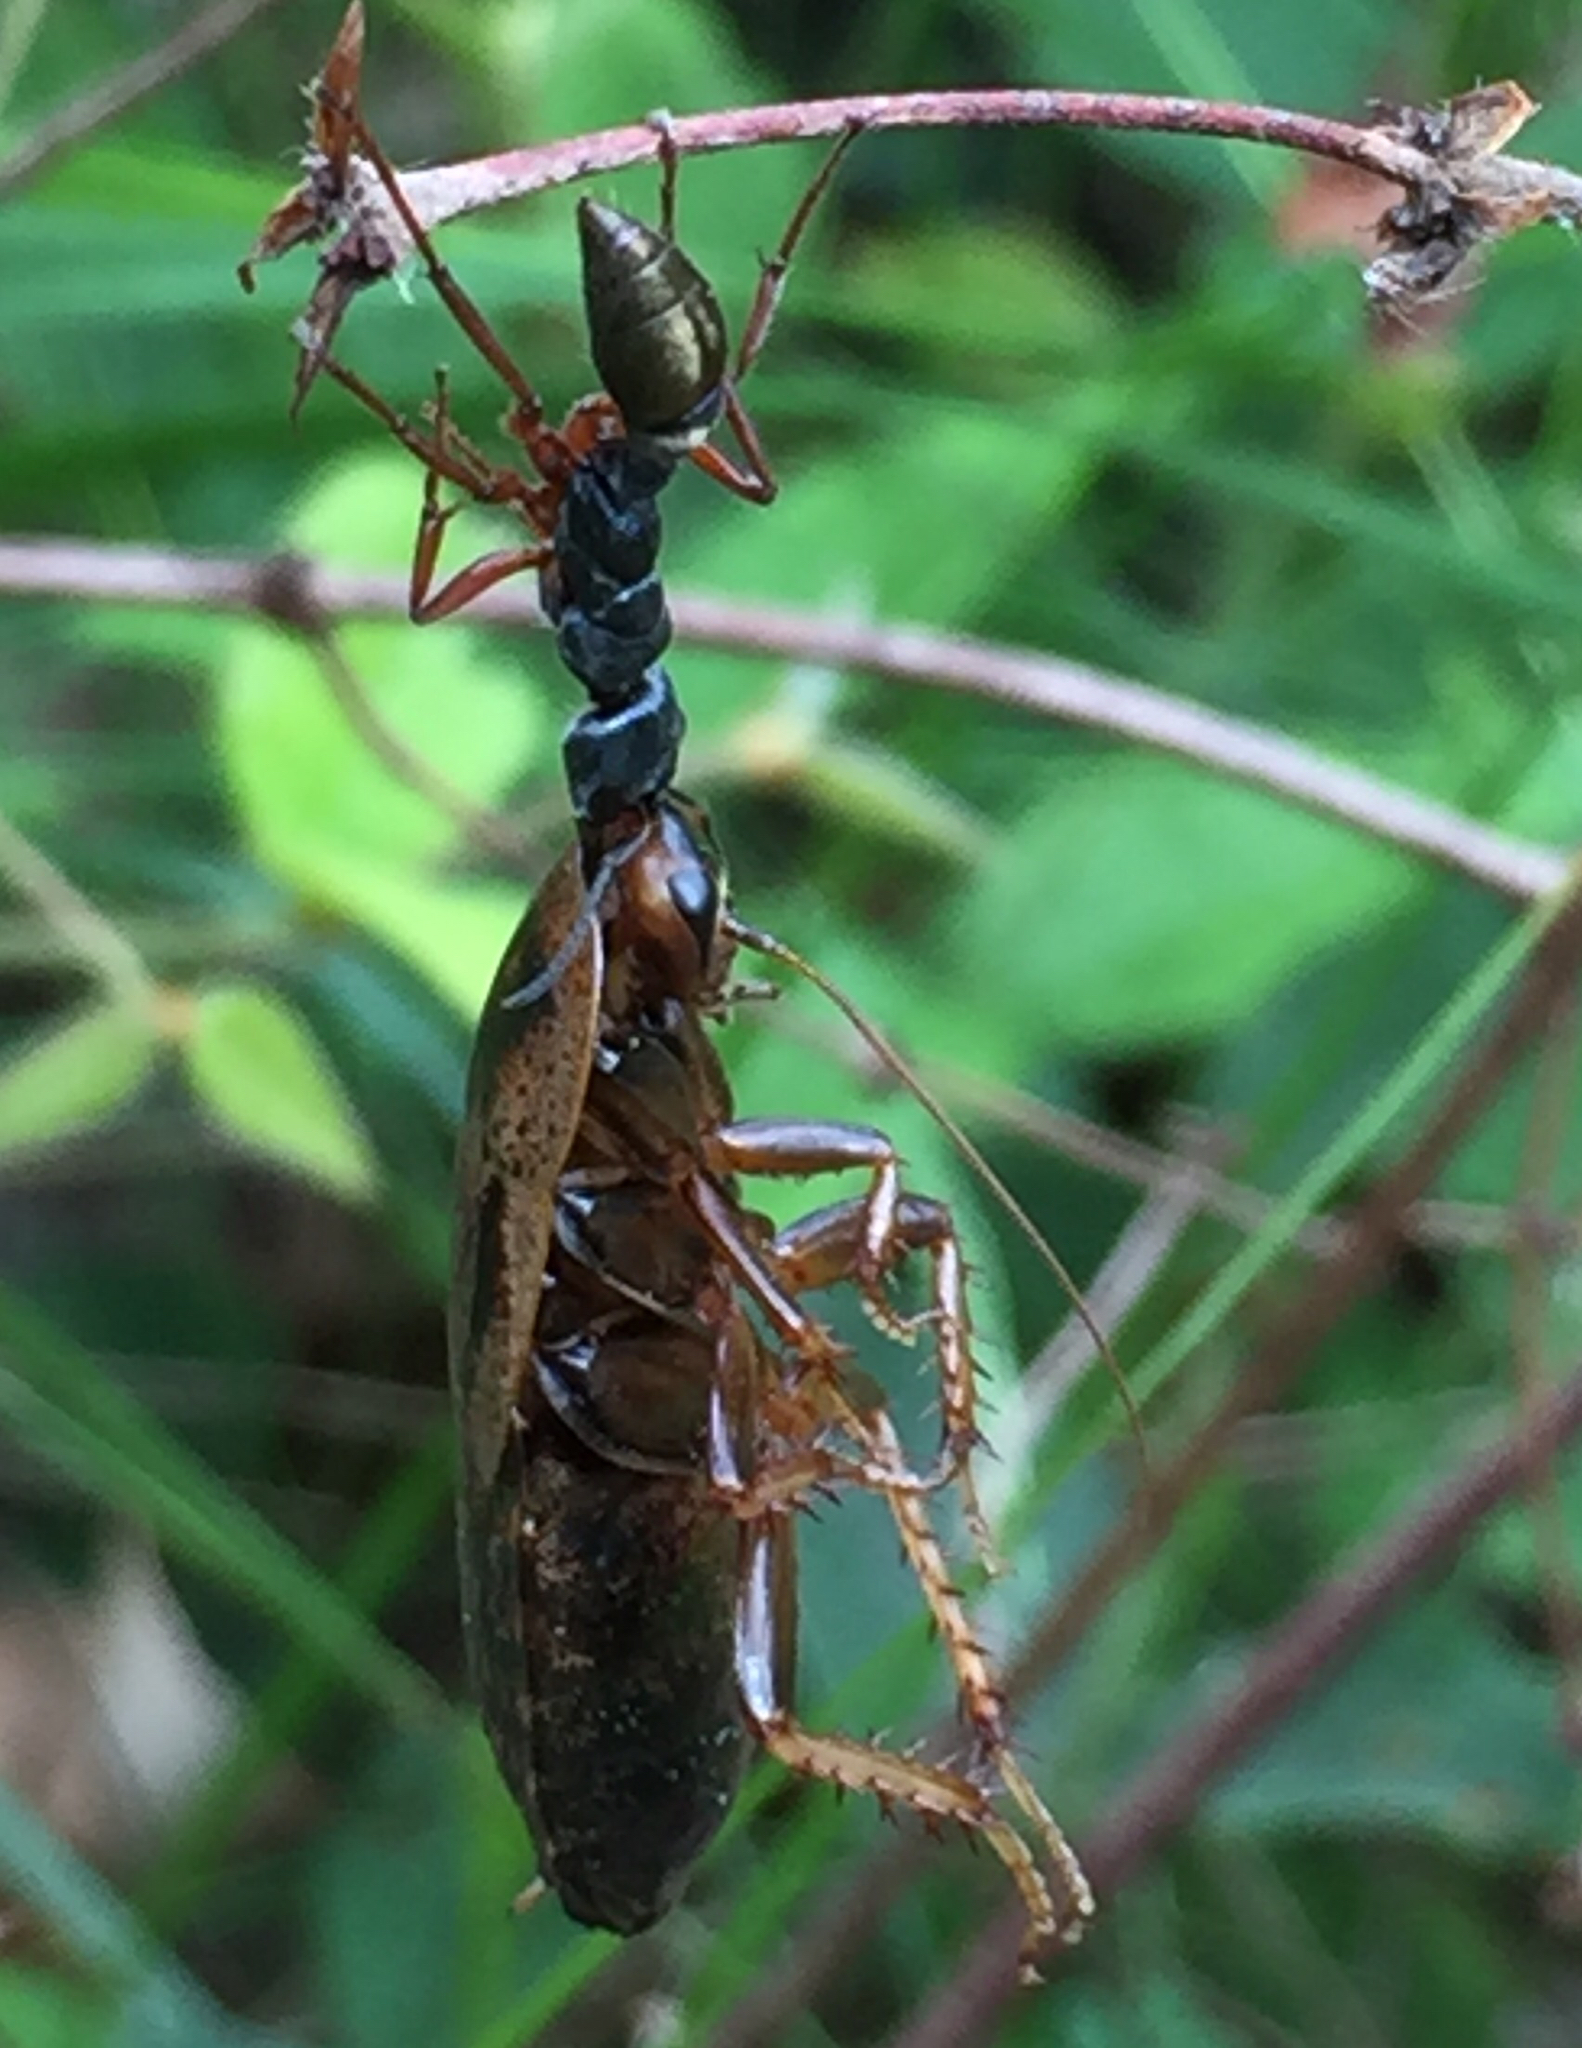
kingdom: Animalia
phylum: Arthropoda
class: Insecta
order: Hymenoptera
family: Formicidae
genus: Myrmecia
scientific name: Myrmecia fulvipes
